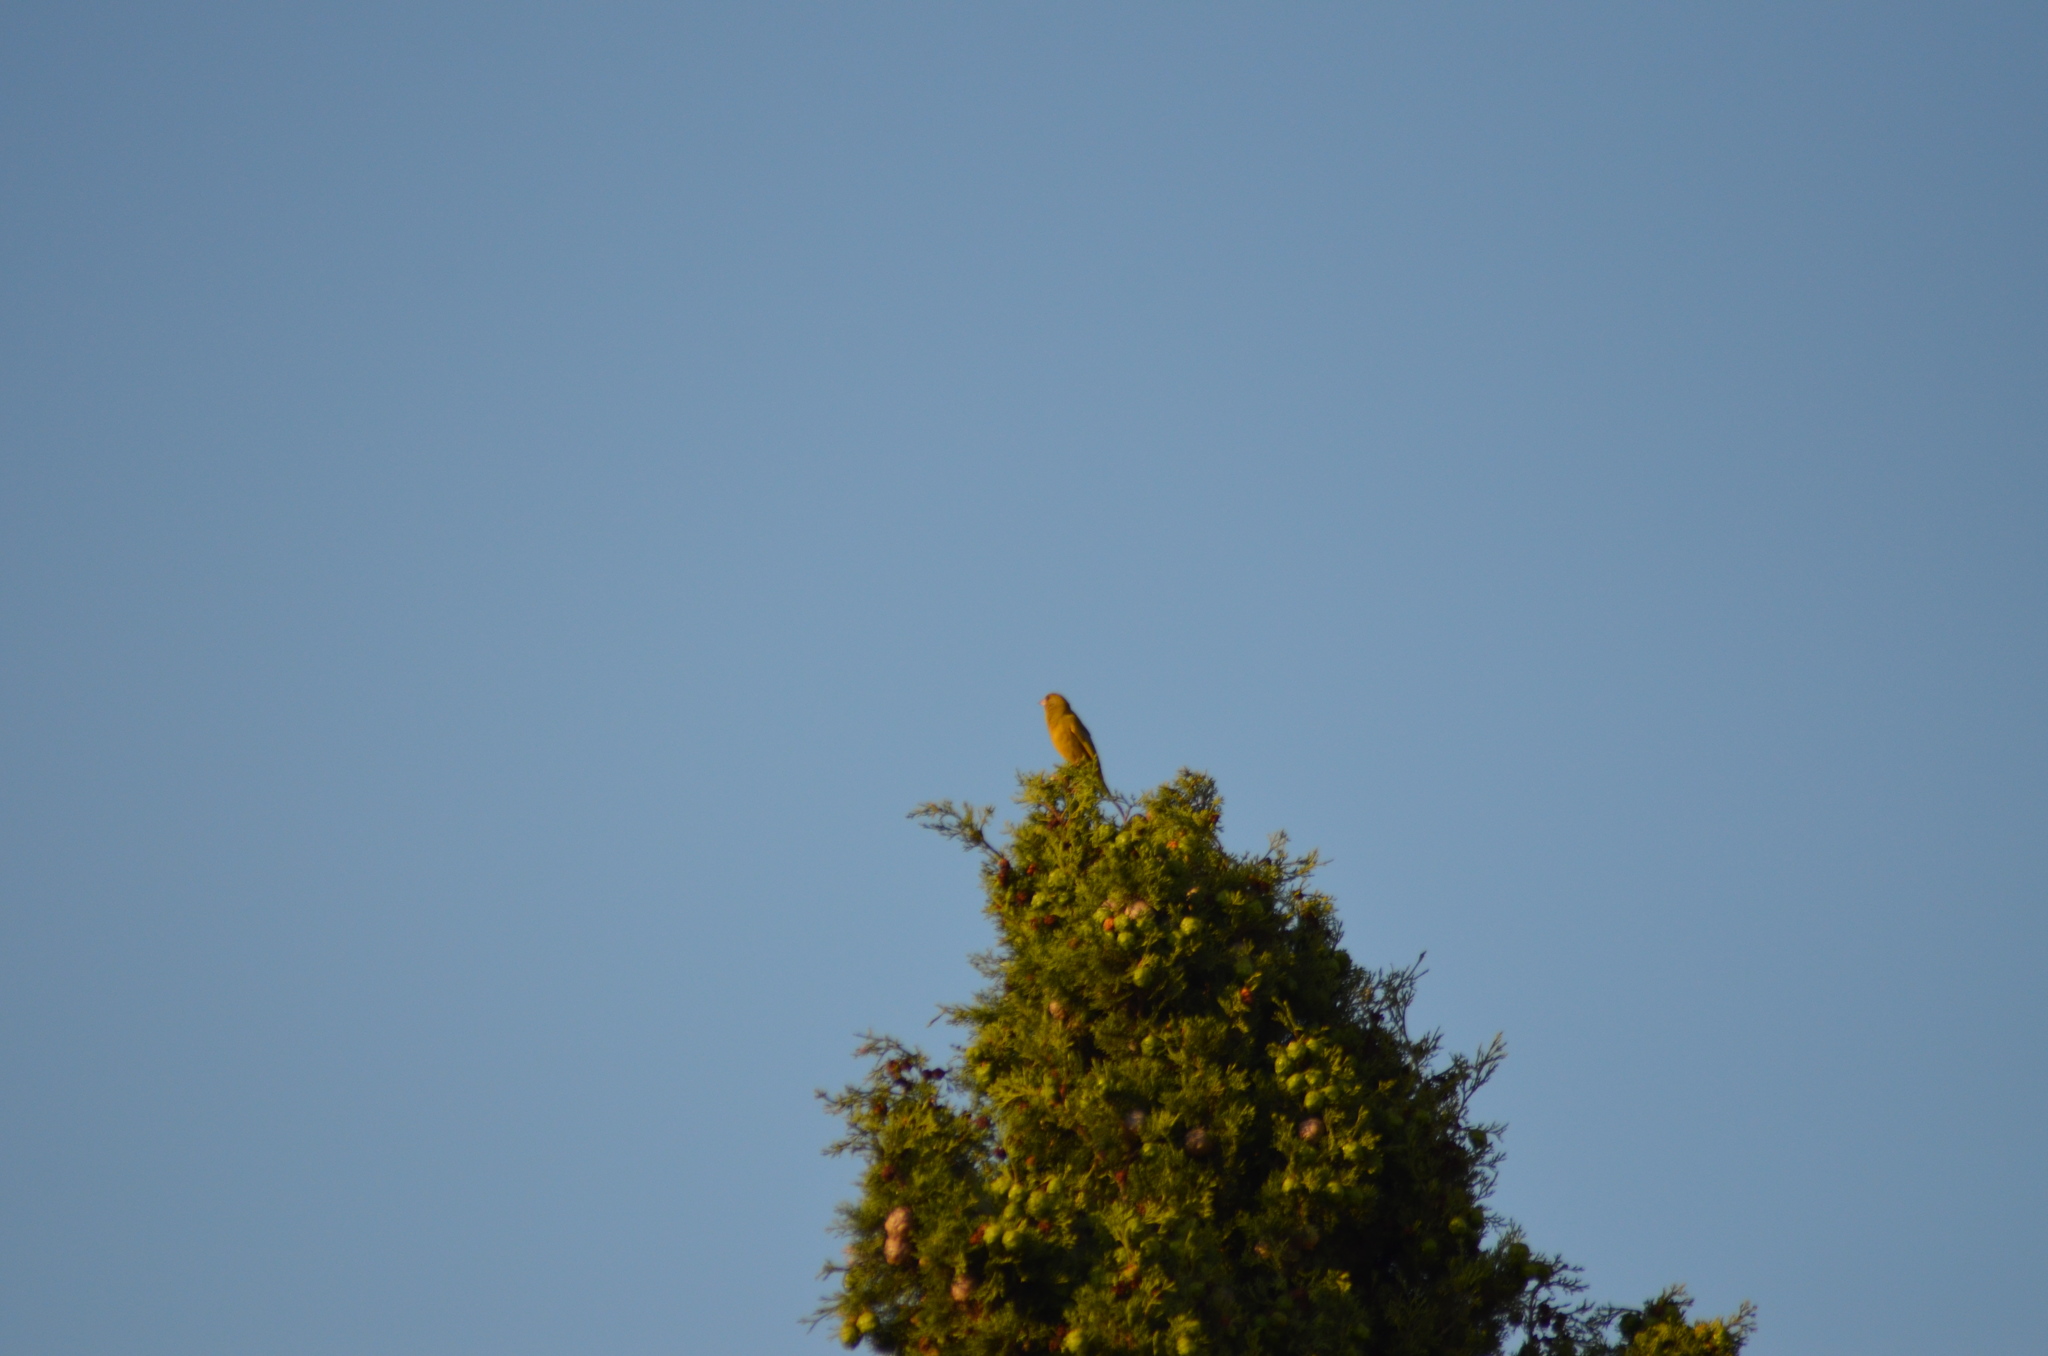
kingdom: Plantae
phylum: Tracheophyta
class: Liliopsida
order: Poales
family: Poaceae
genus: Chloris
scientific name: Chloris chloris
